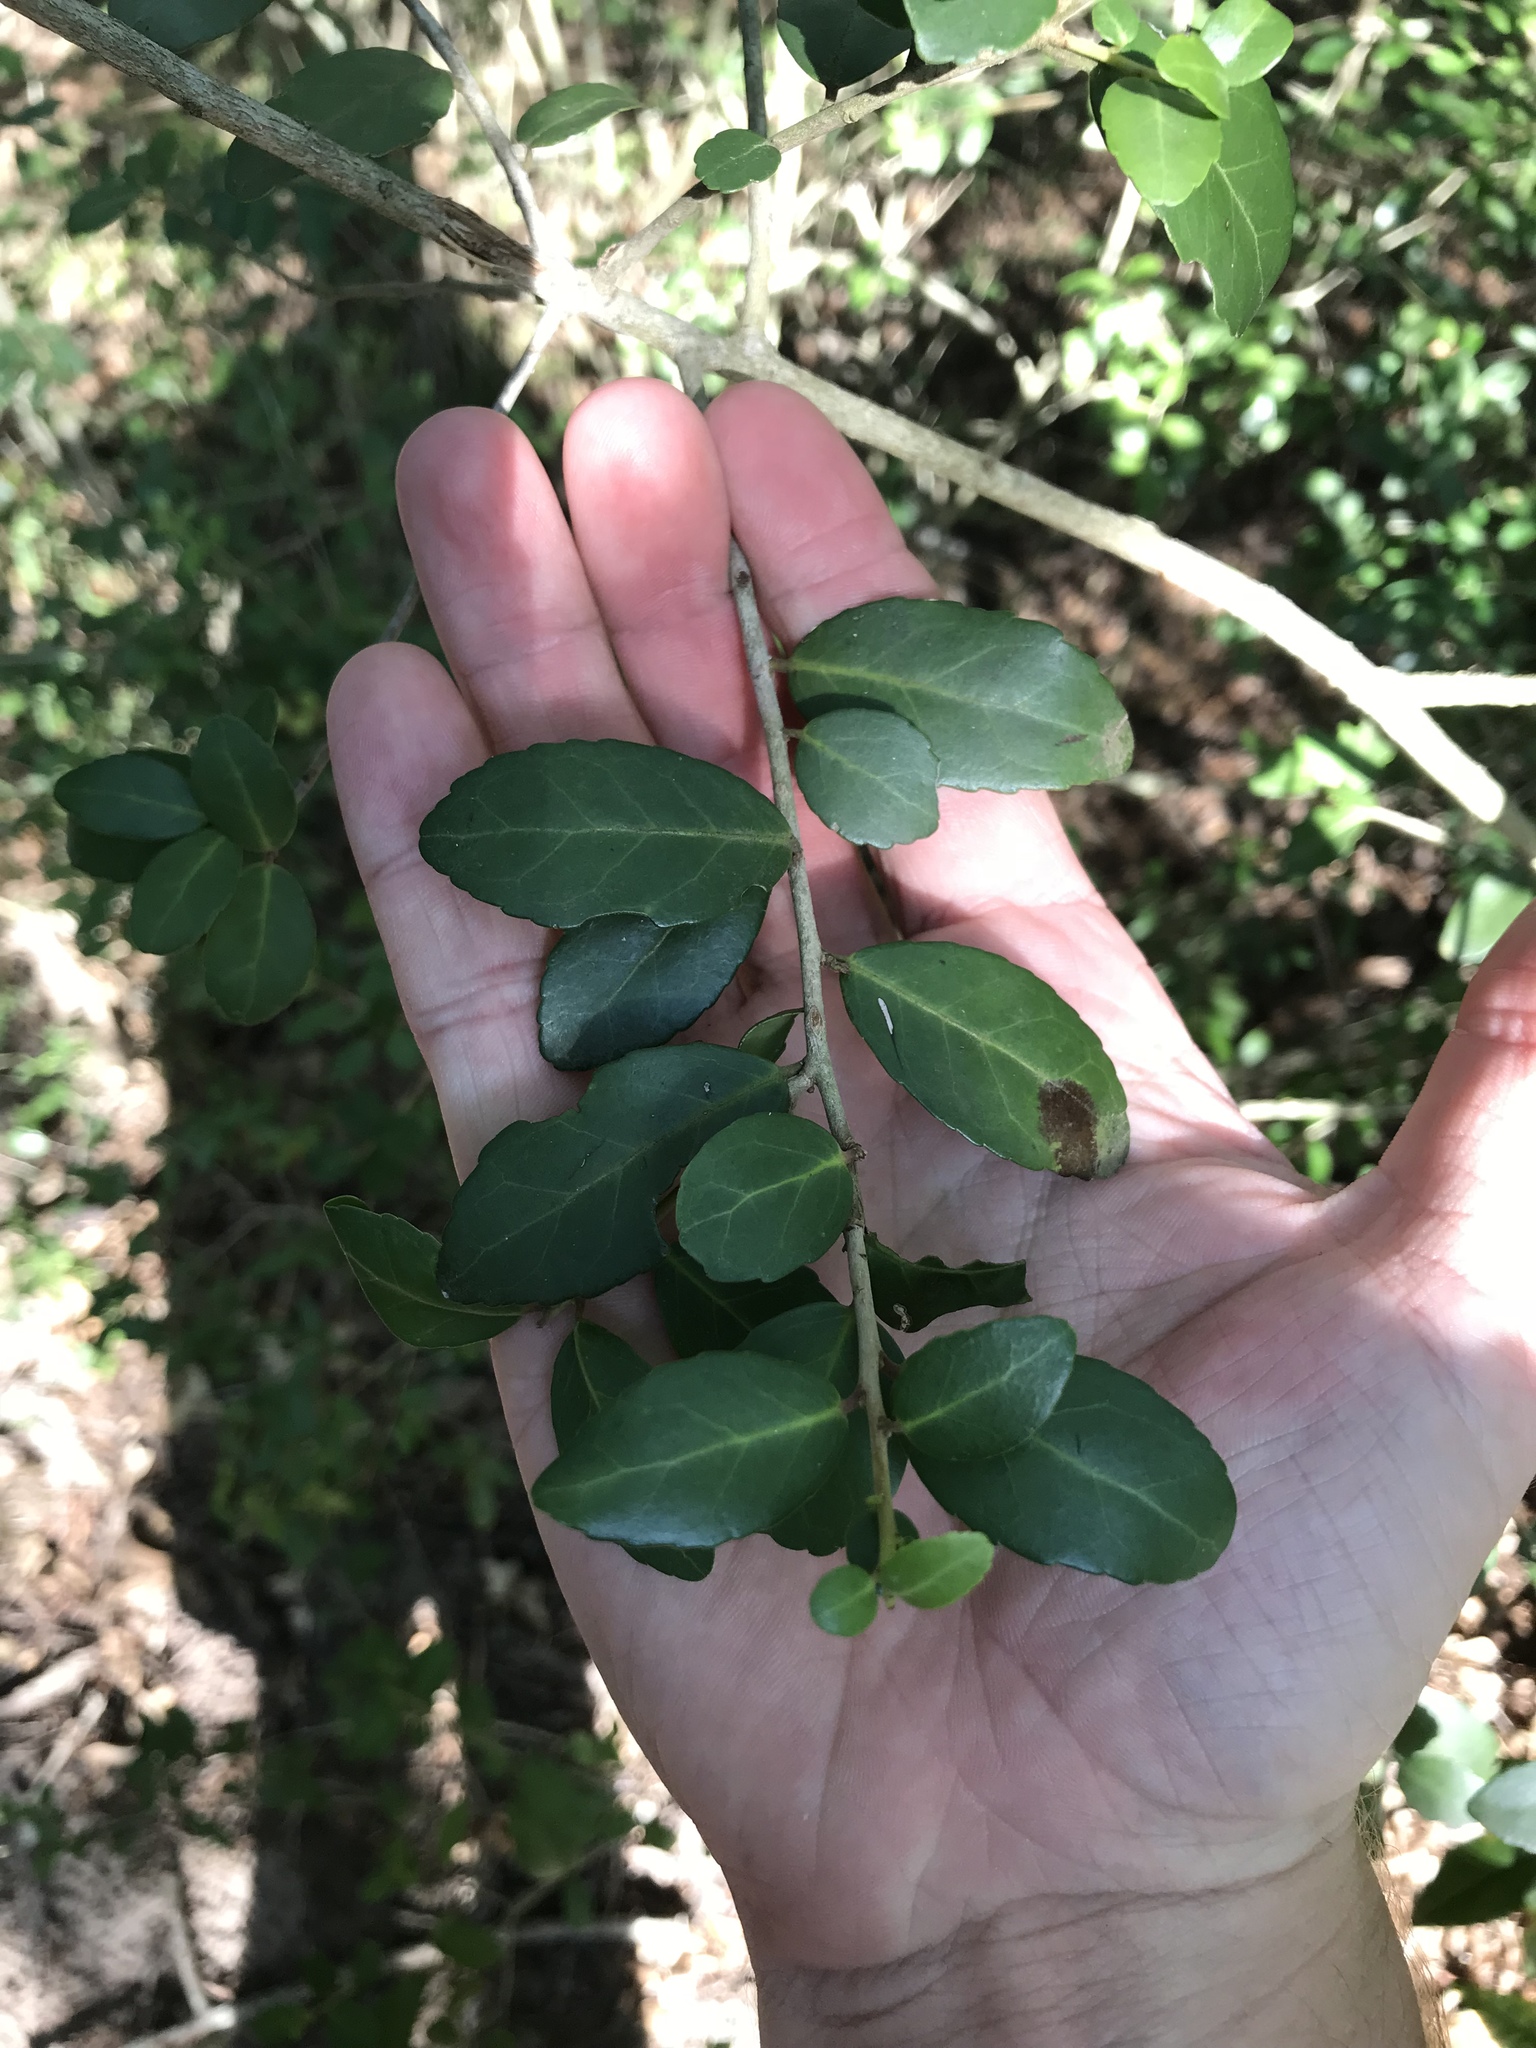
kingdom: Plantae
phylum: Tracheophyta
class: Magnoliopsida
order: Aquifoliales
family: Aquifoliaceae
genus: Ilex
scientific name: Ilex vomitoria
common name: Yaupon holly
